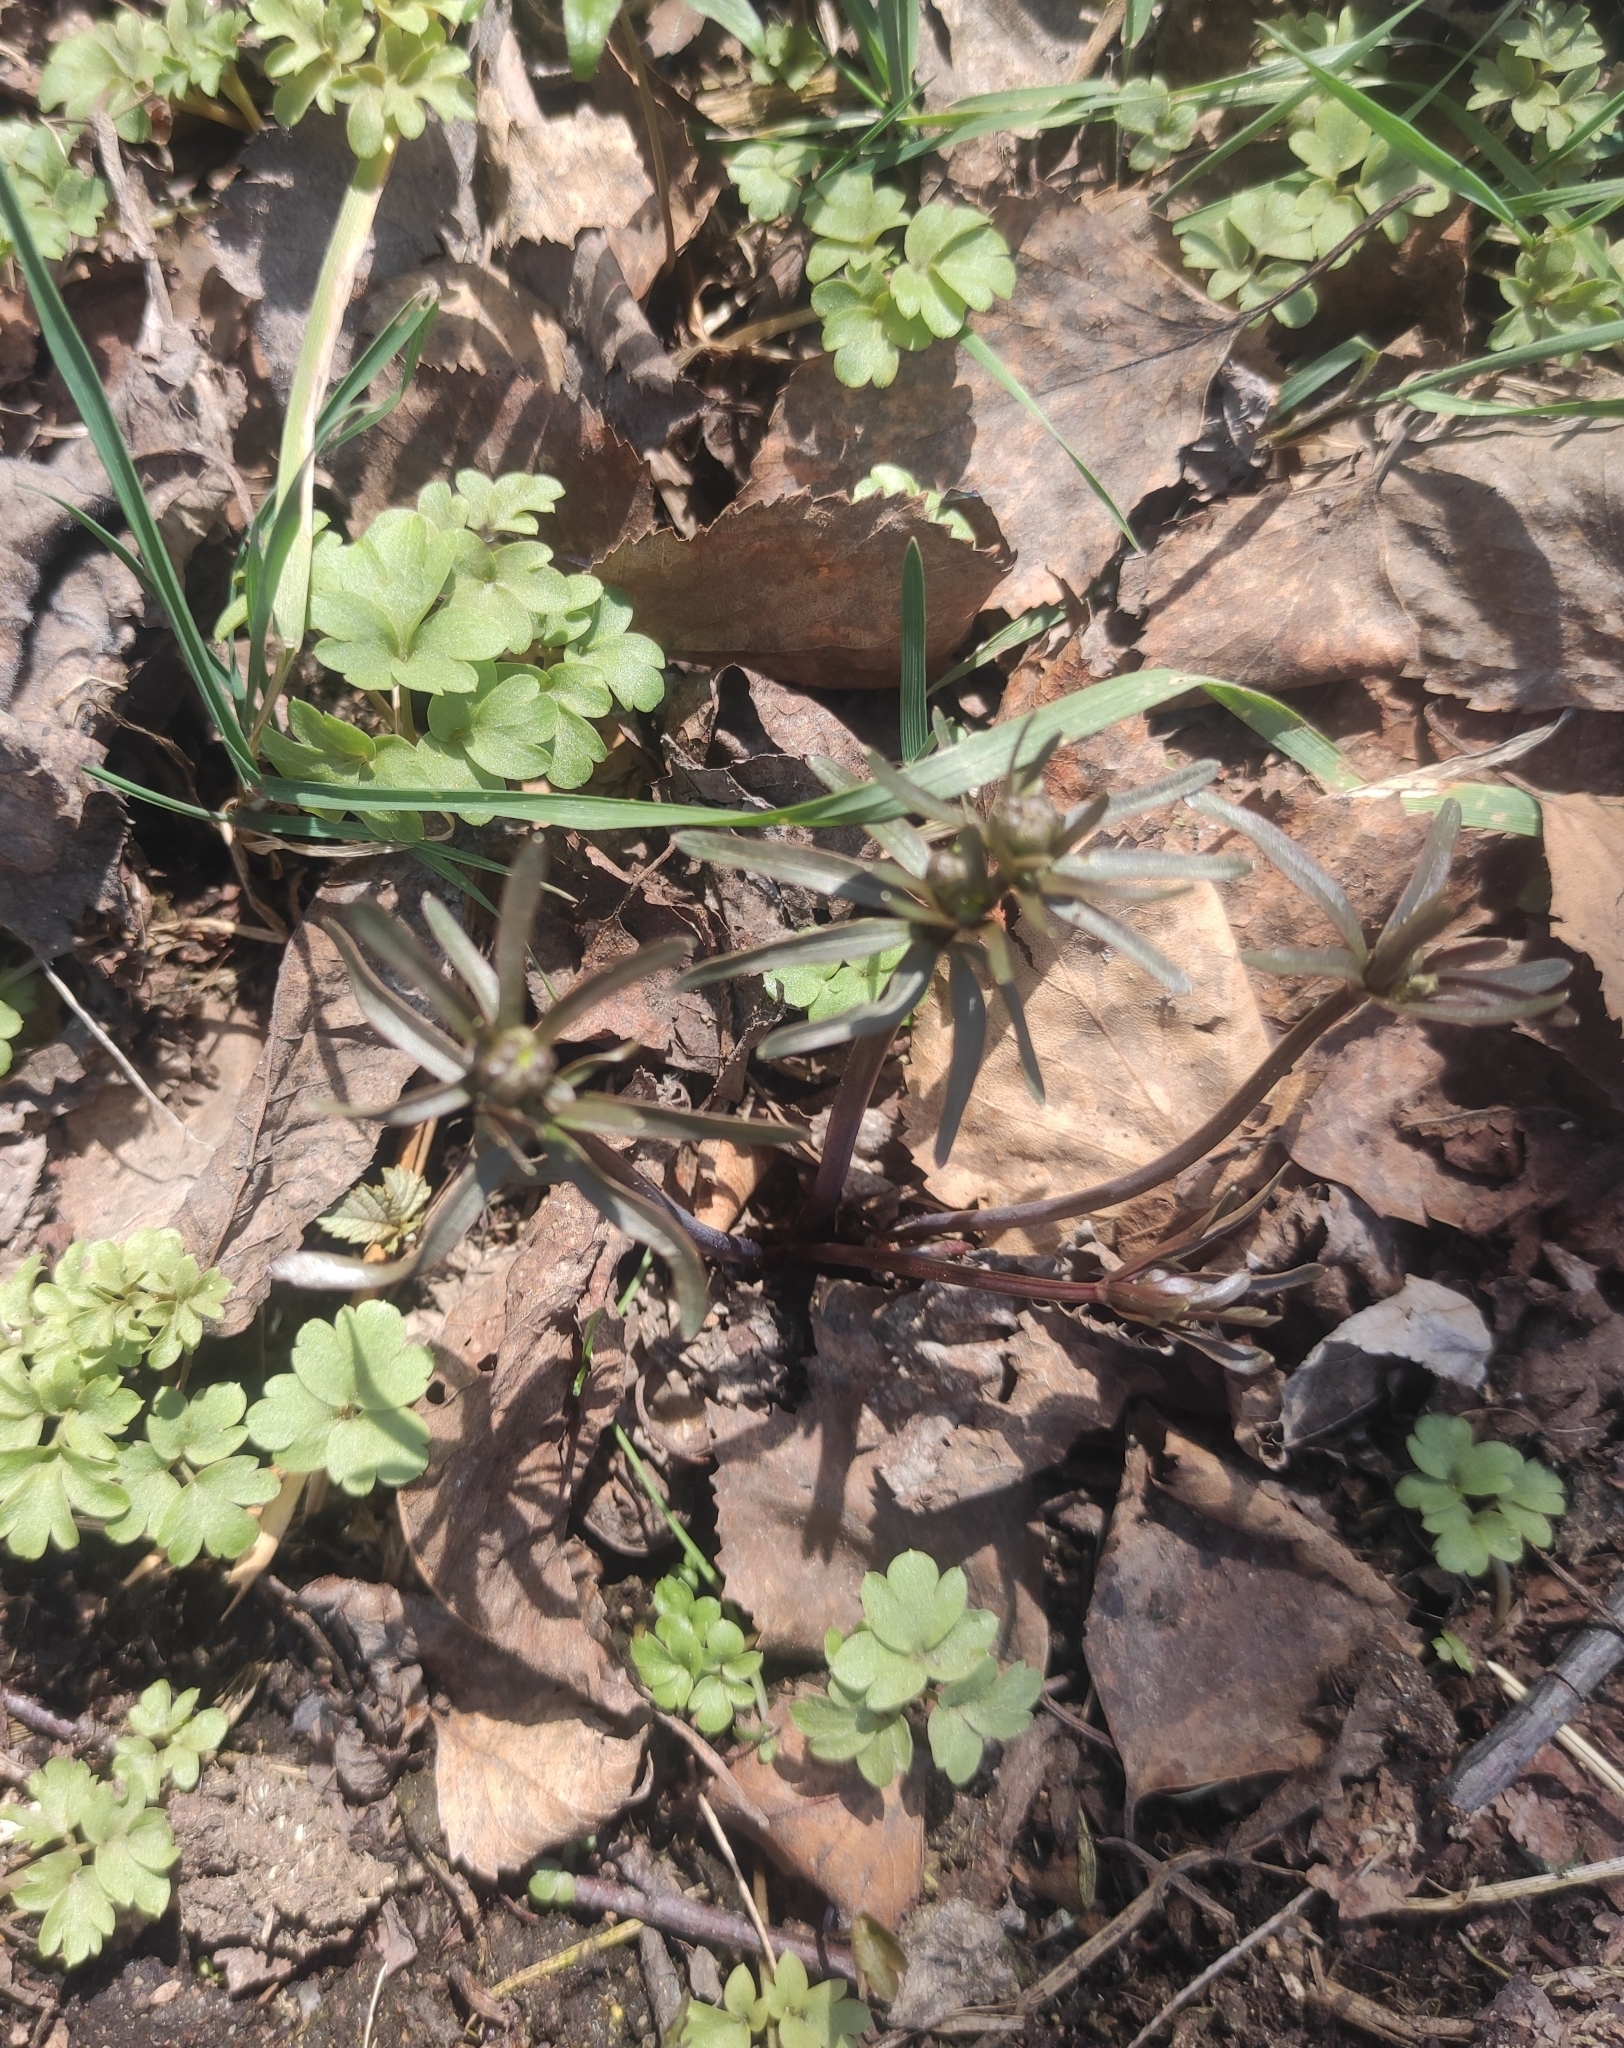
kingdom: Plantae
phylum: Tracheophyta
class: Magnoliopsida
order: Ranunculales
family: Ranunculaceae
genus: Ranunculus
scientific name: Ranunculus monophyllus
